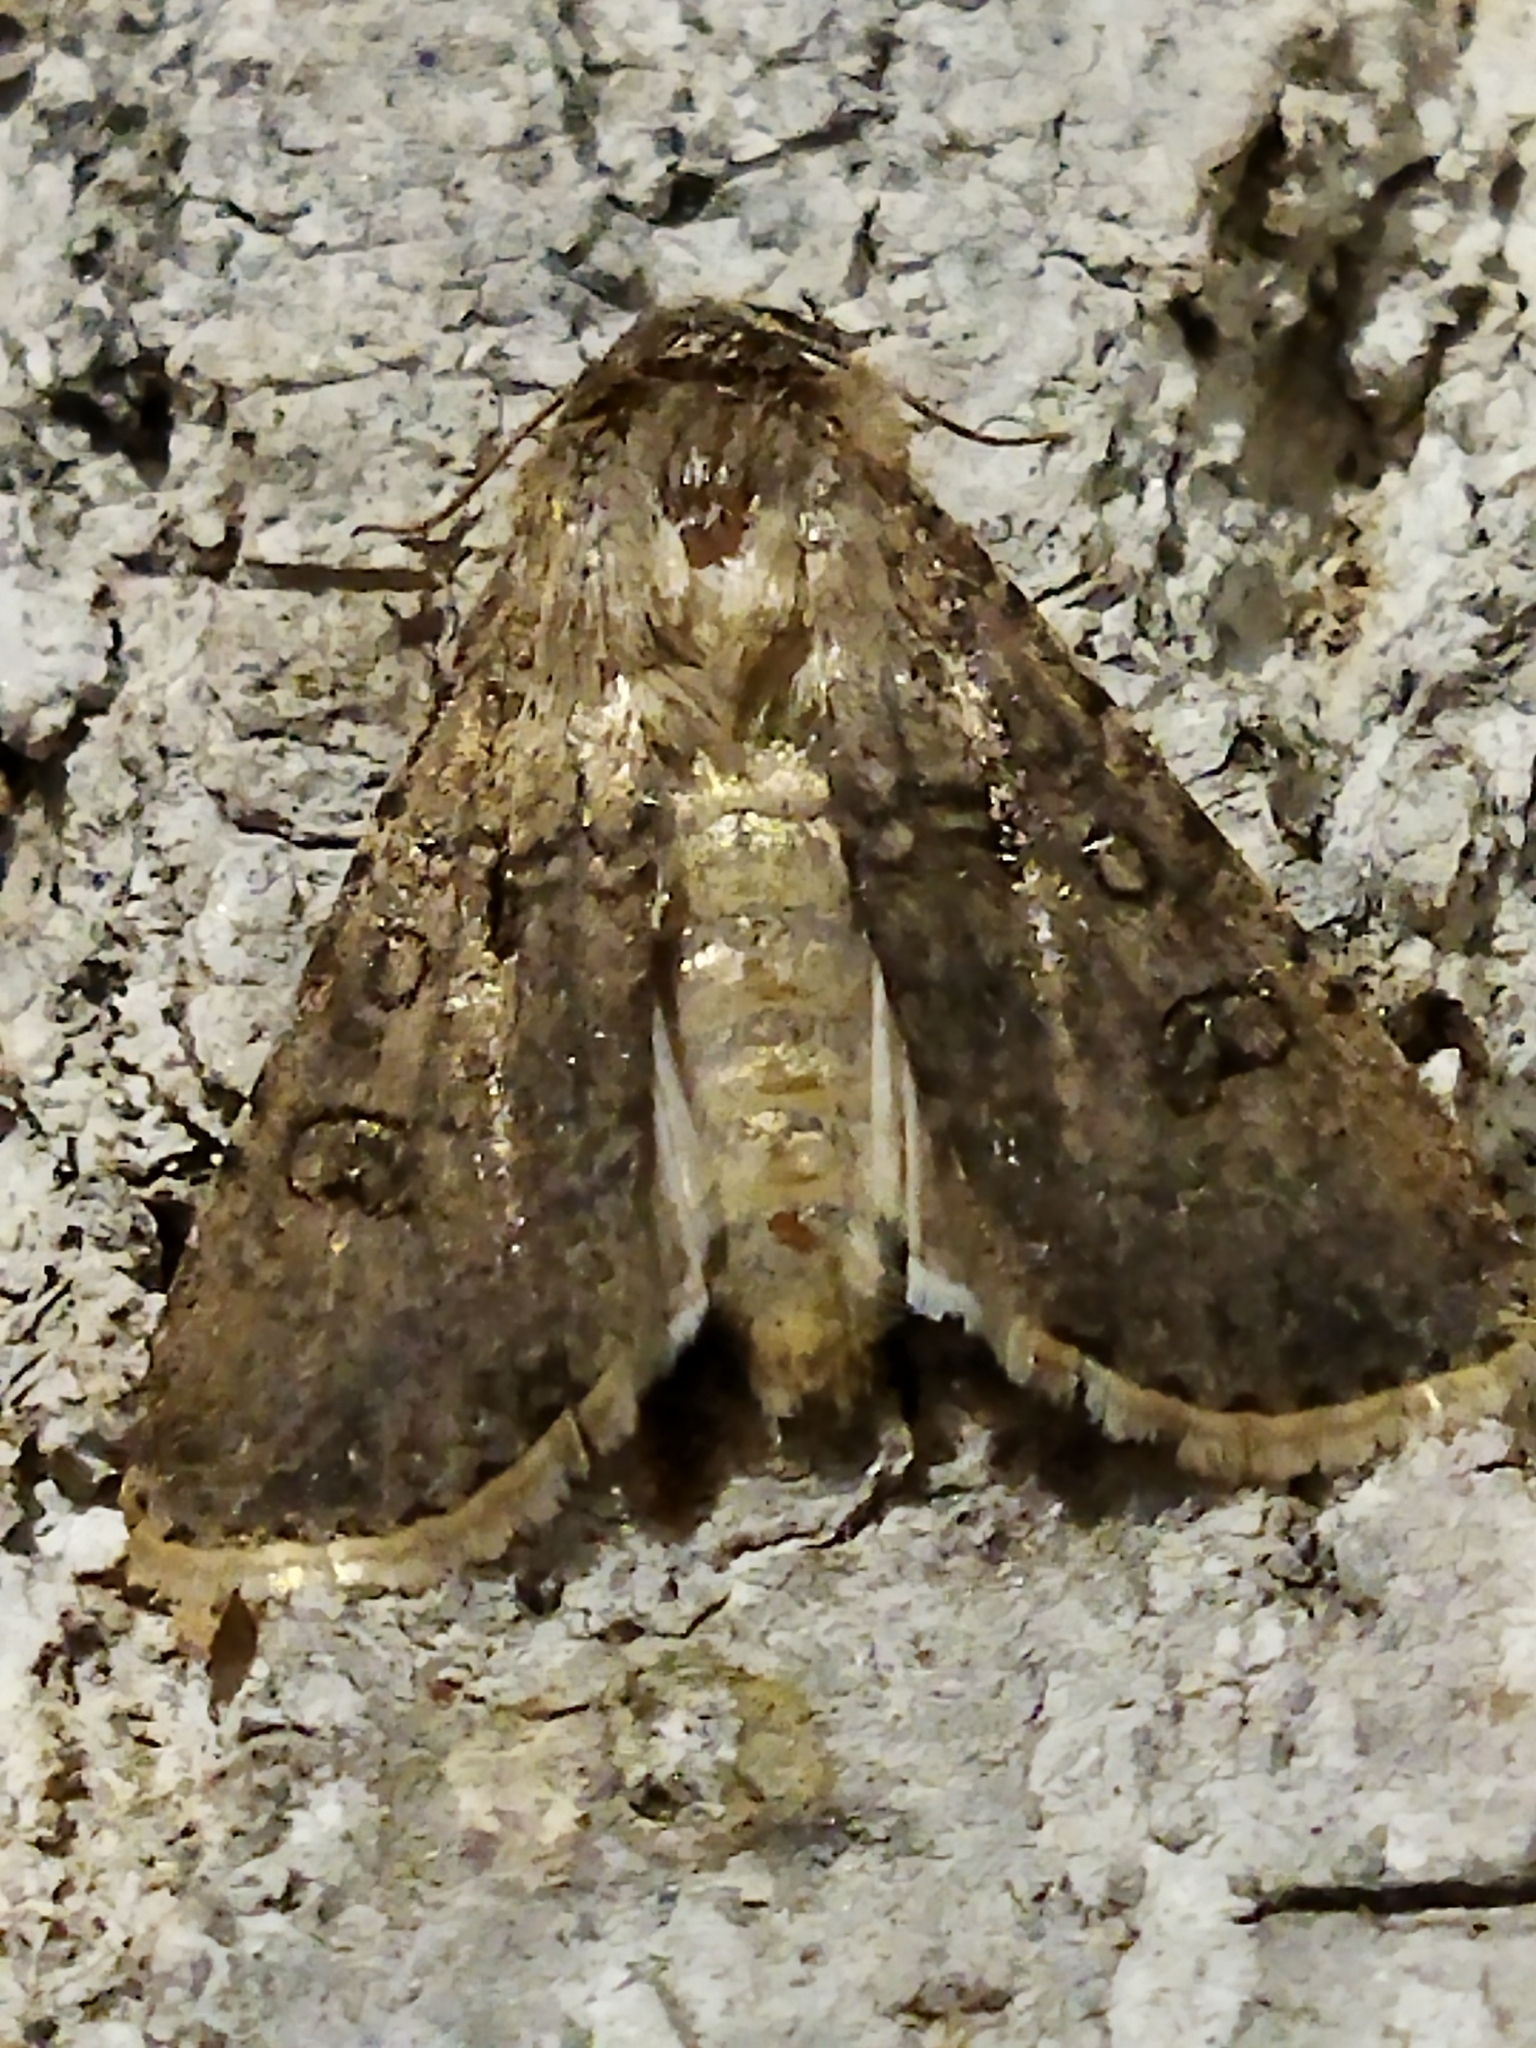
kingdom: Animalia
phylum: Arthropoda
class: Insecta
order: Lepidoptera
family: Noctuidae
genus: Agrotis
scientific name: Agrotis segetum
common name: Turnip moth
